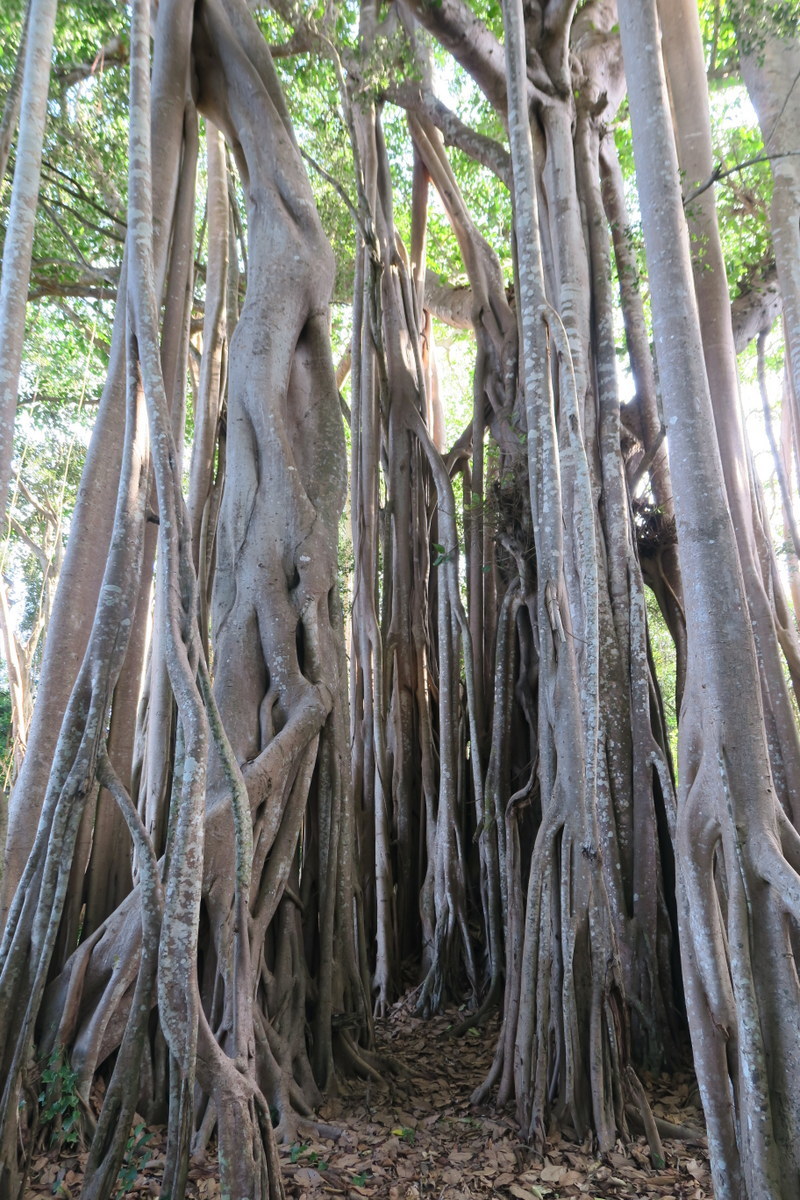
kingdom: Plantae
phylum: Tracheophyta
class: Magnoliopsida
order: Rosales
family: Moraceae
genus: Ficus
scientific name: Ficus benghalensis
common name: Indian banyan
